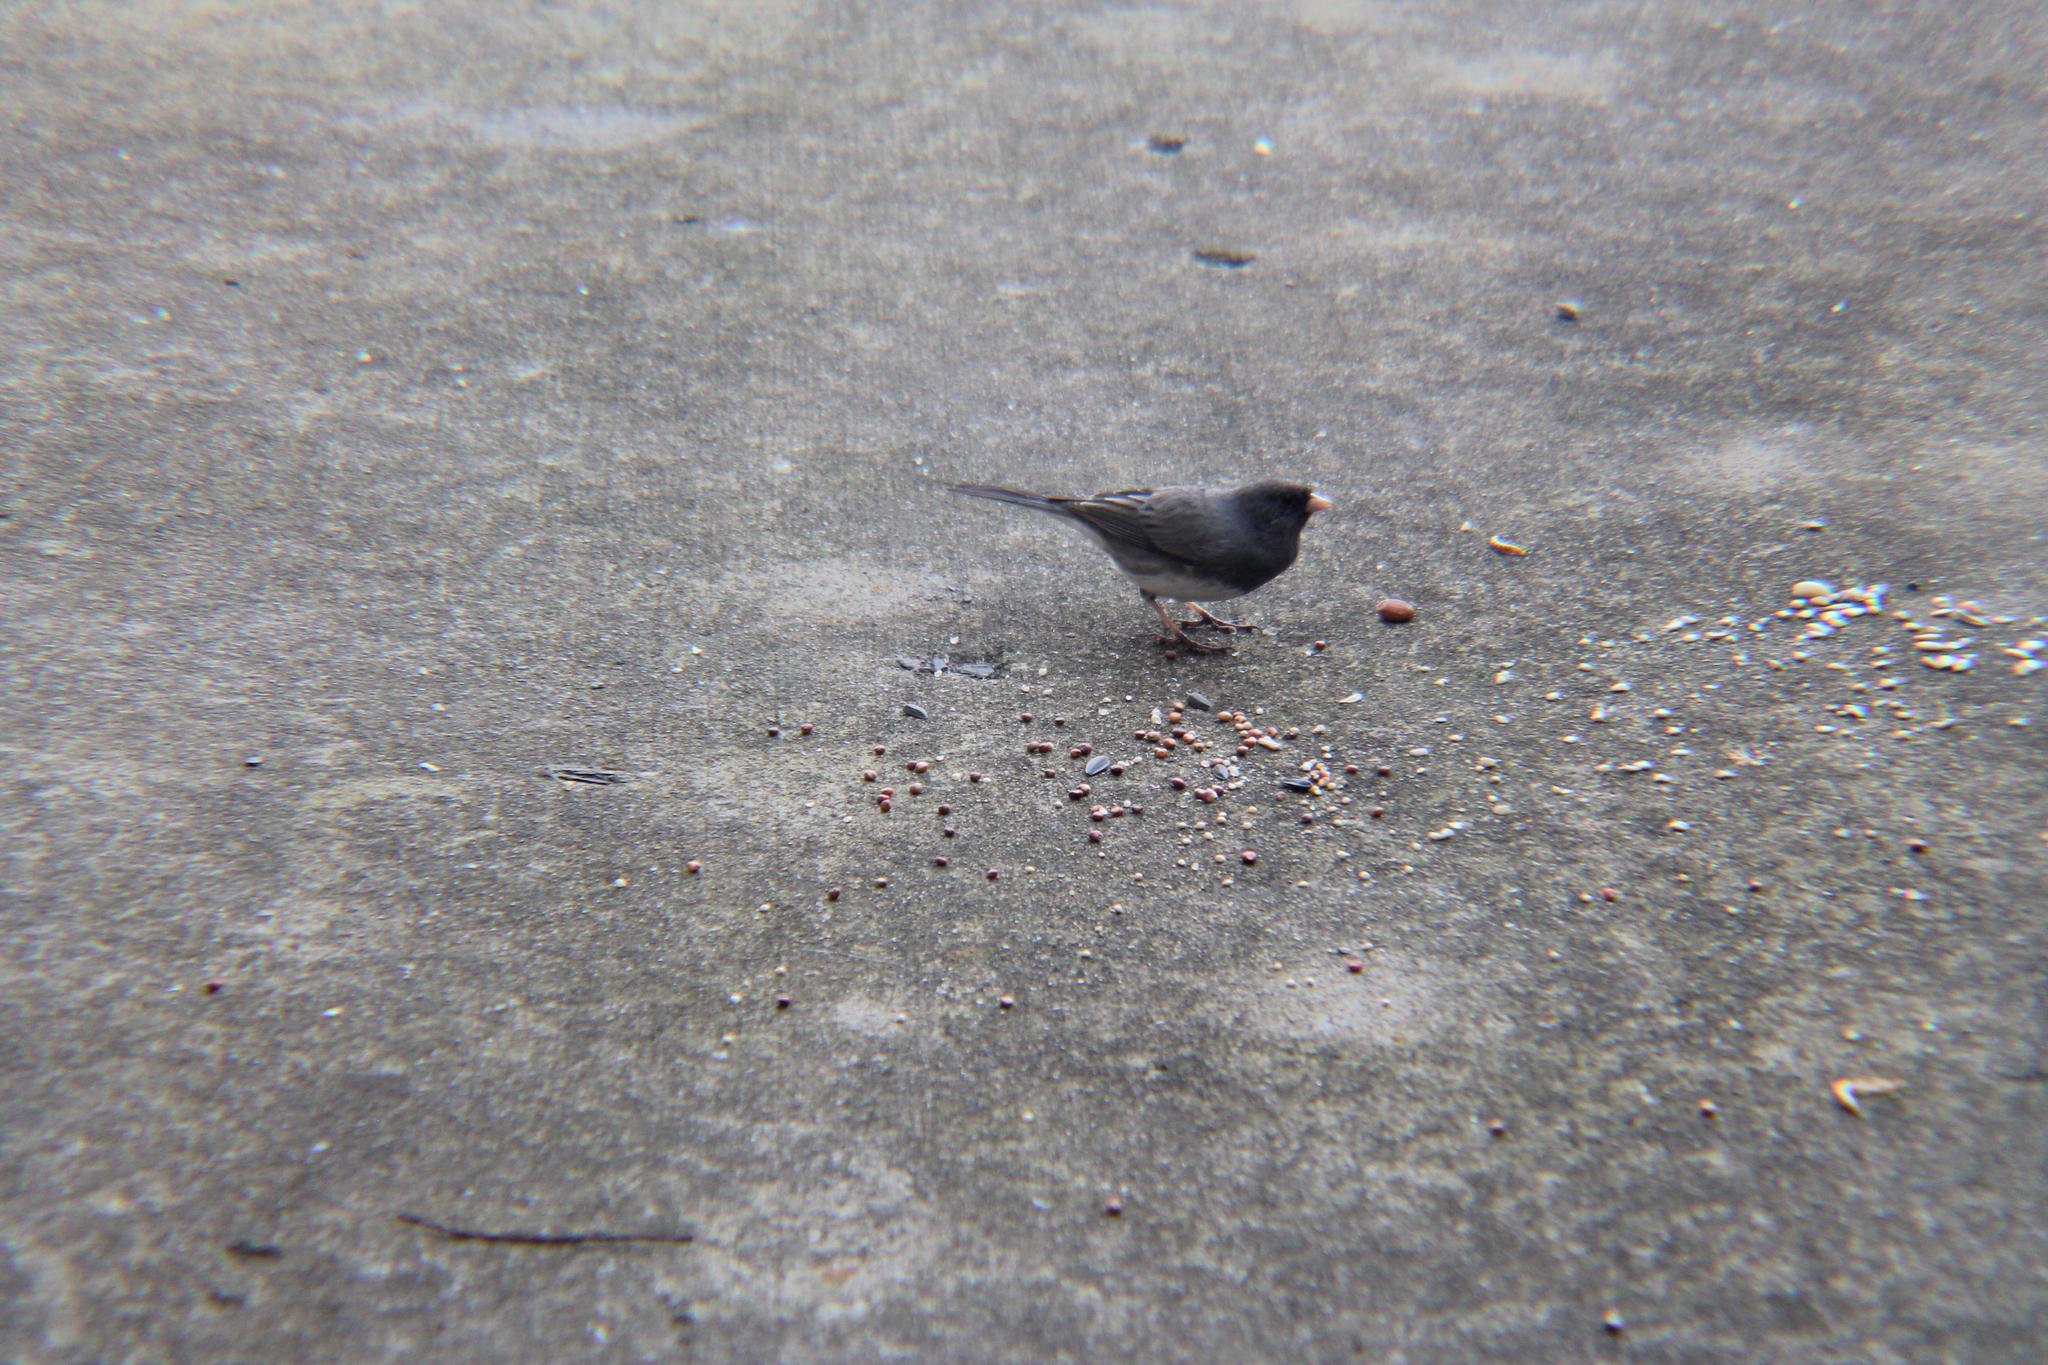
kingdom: Animalia
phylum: Chordata
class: Aves
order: Passeriformes
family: Passerellidae
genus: Junco
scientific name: Junco hyemalis
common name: Dark-eyed junco
